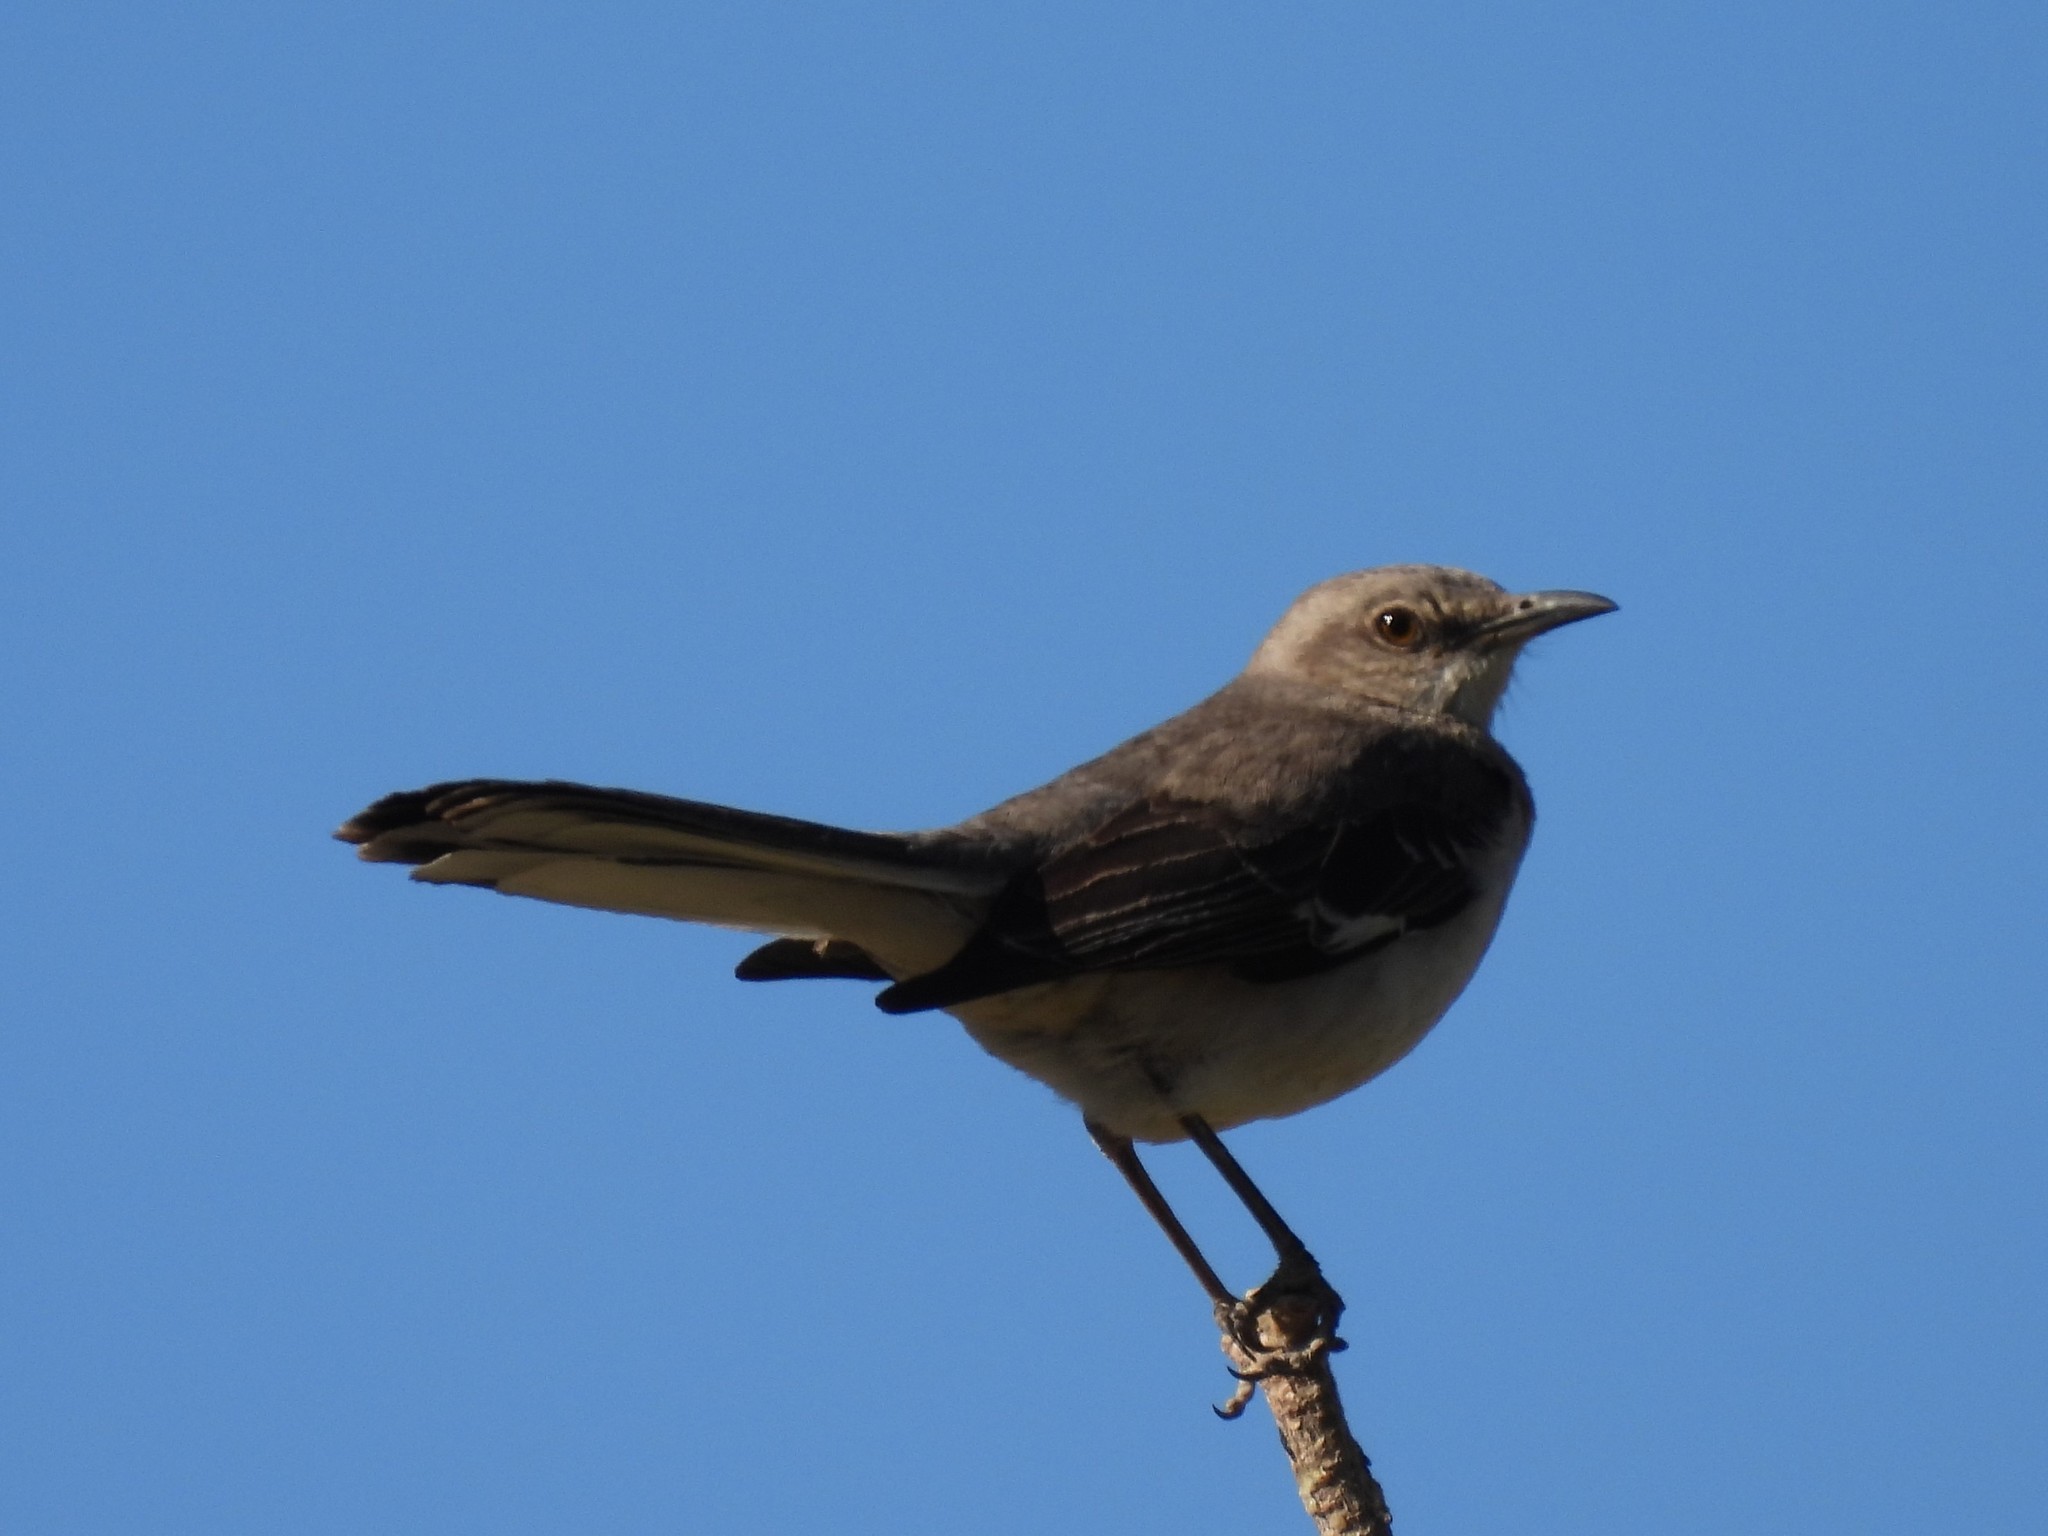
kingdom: Animalia
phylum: Chordata
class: Aves
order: Passeriformes
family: Mimidae
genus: Mimus
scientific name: Mimus polyglottos
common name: Northern mockingbird
